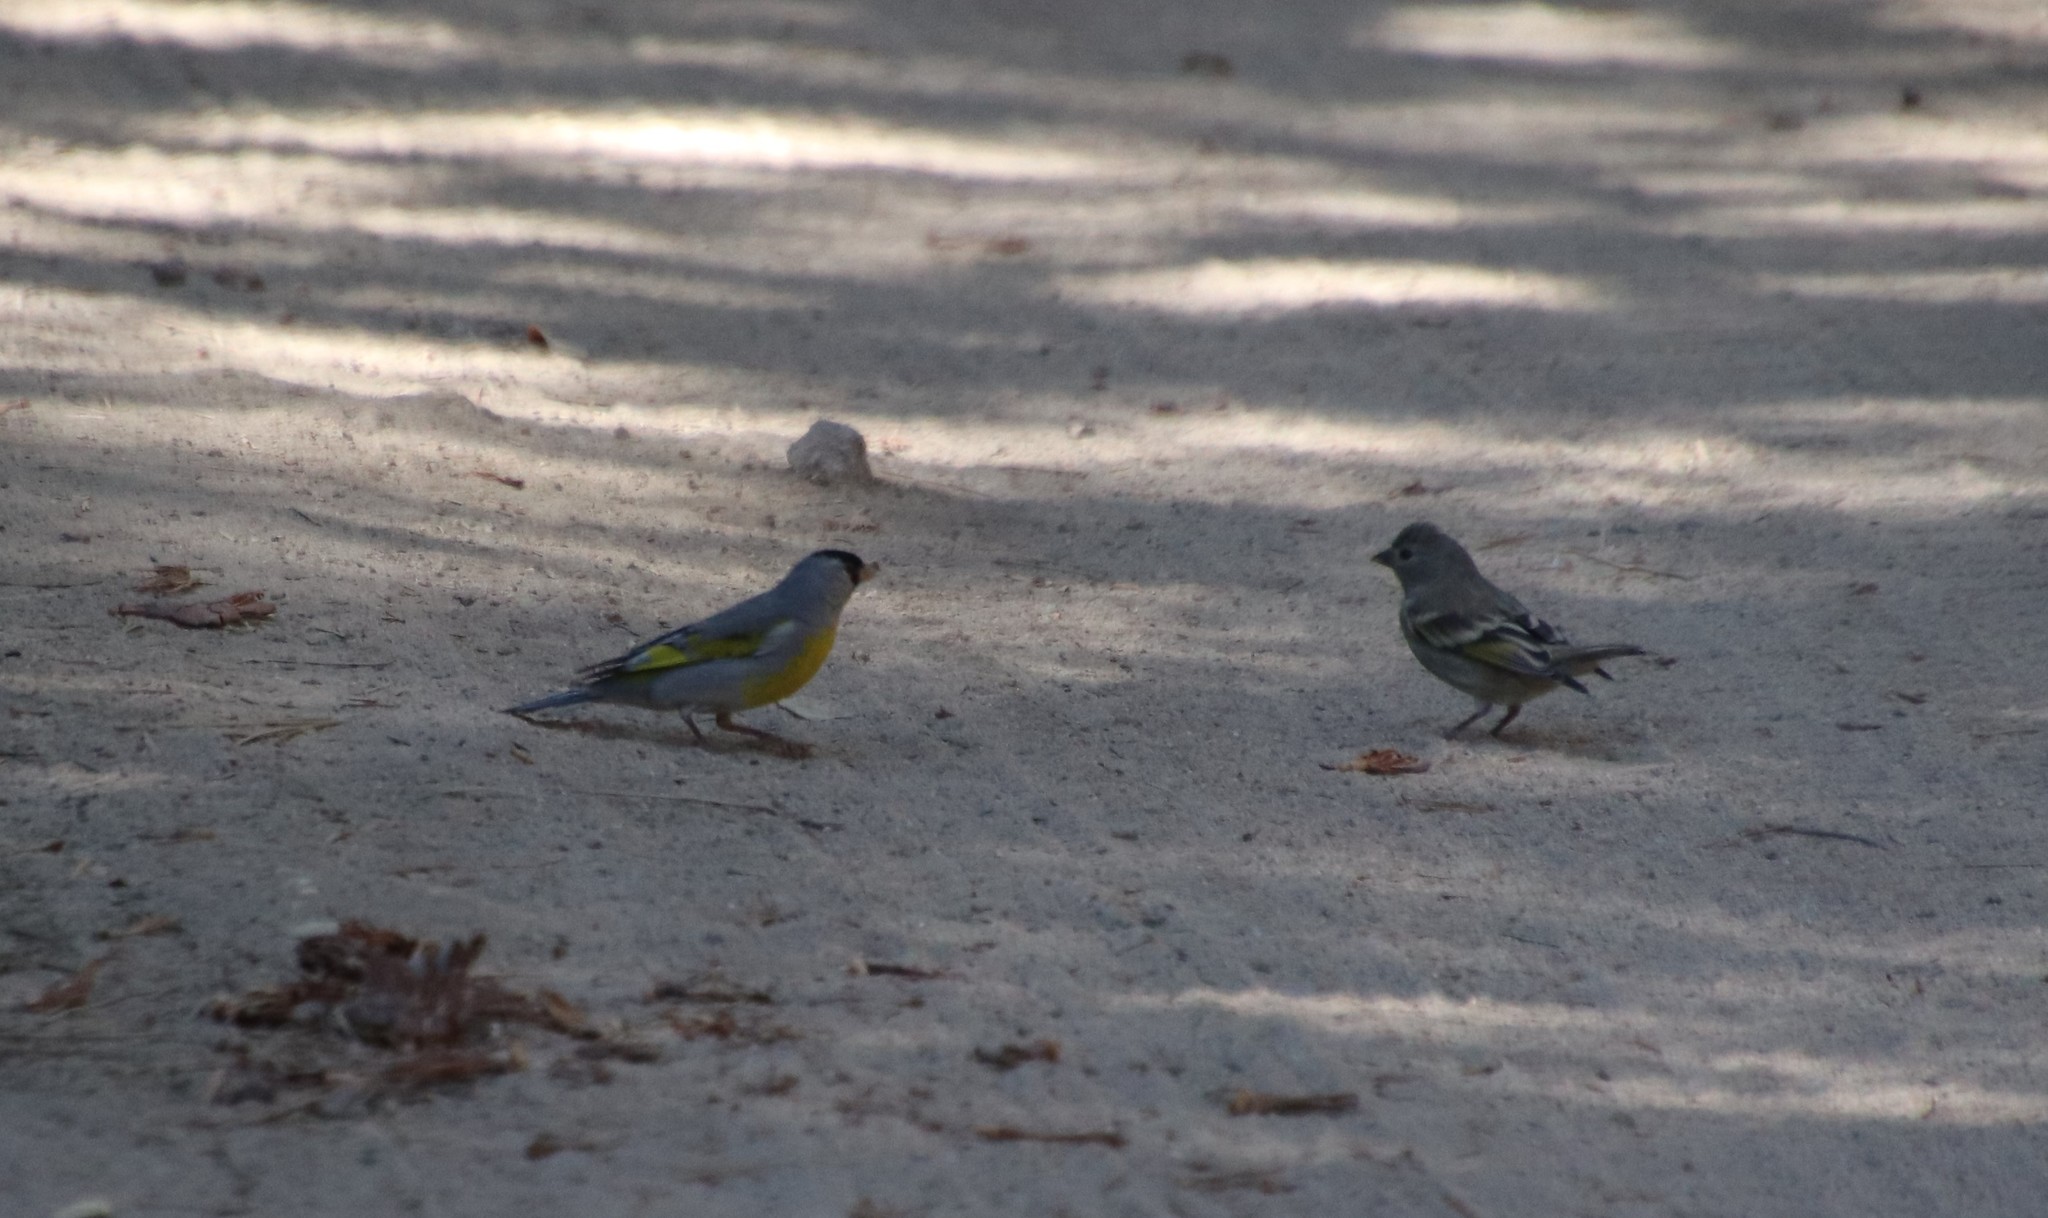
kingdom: Animalia
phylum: Chordata
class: Aves
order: Passeriformes
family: Fringillidae
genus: Spinus
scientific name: Spinus lawrencei
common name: Lawrence's goldfinch
